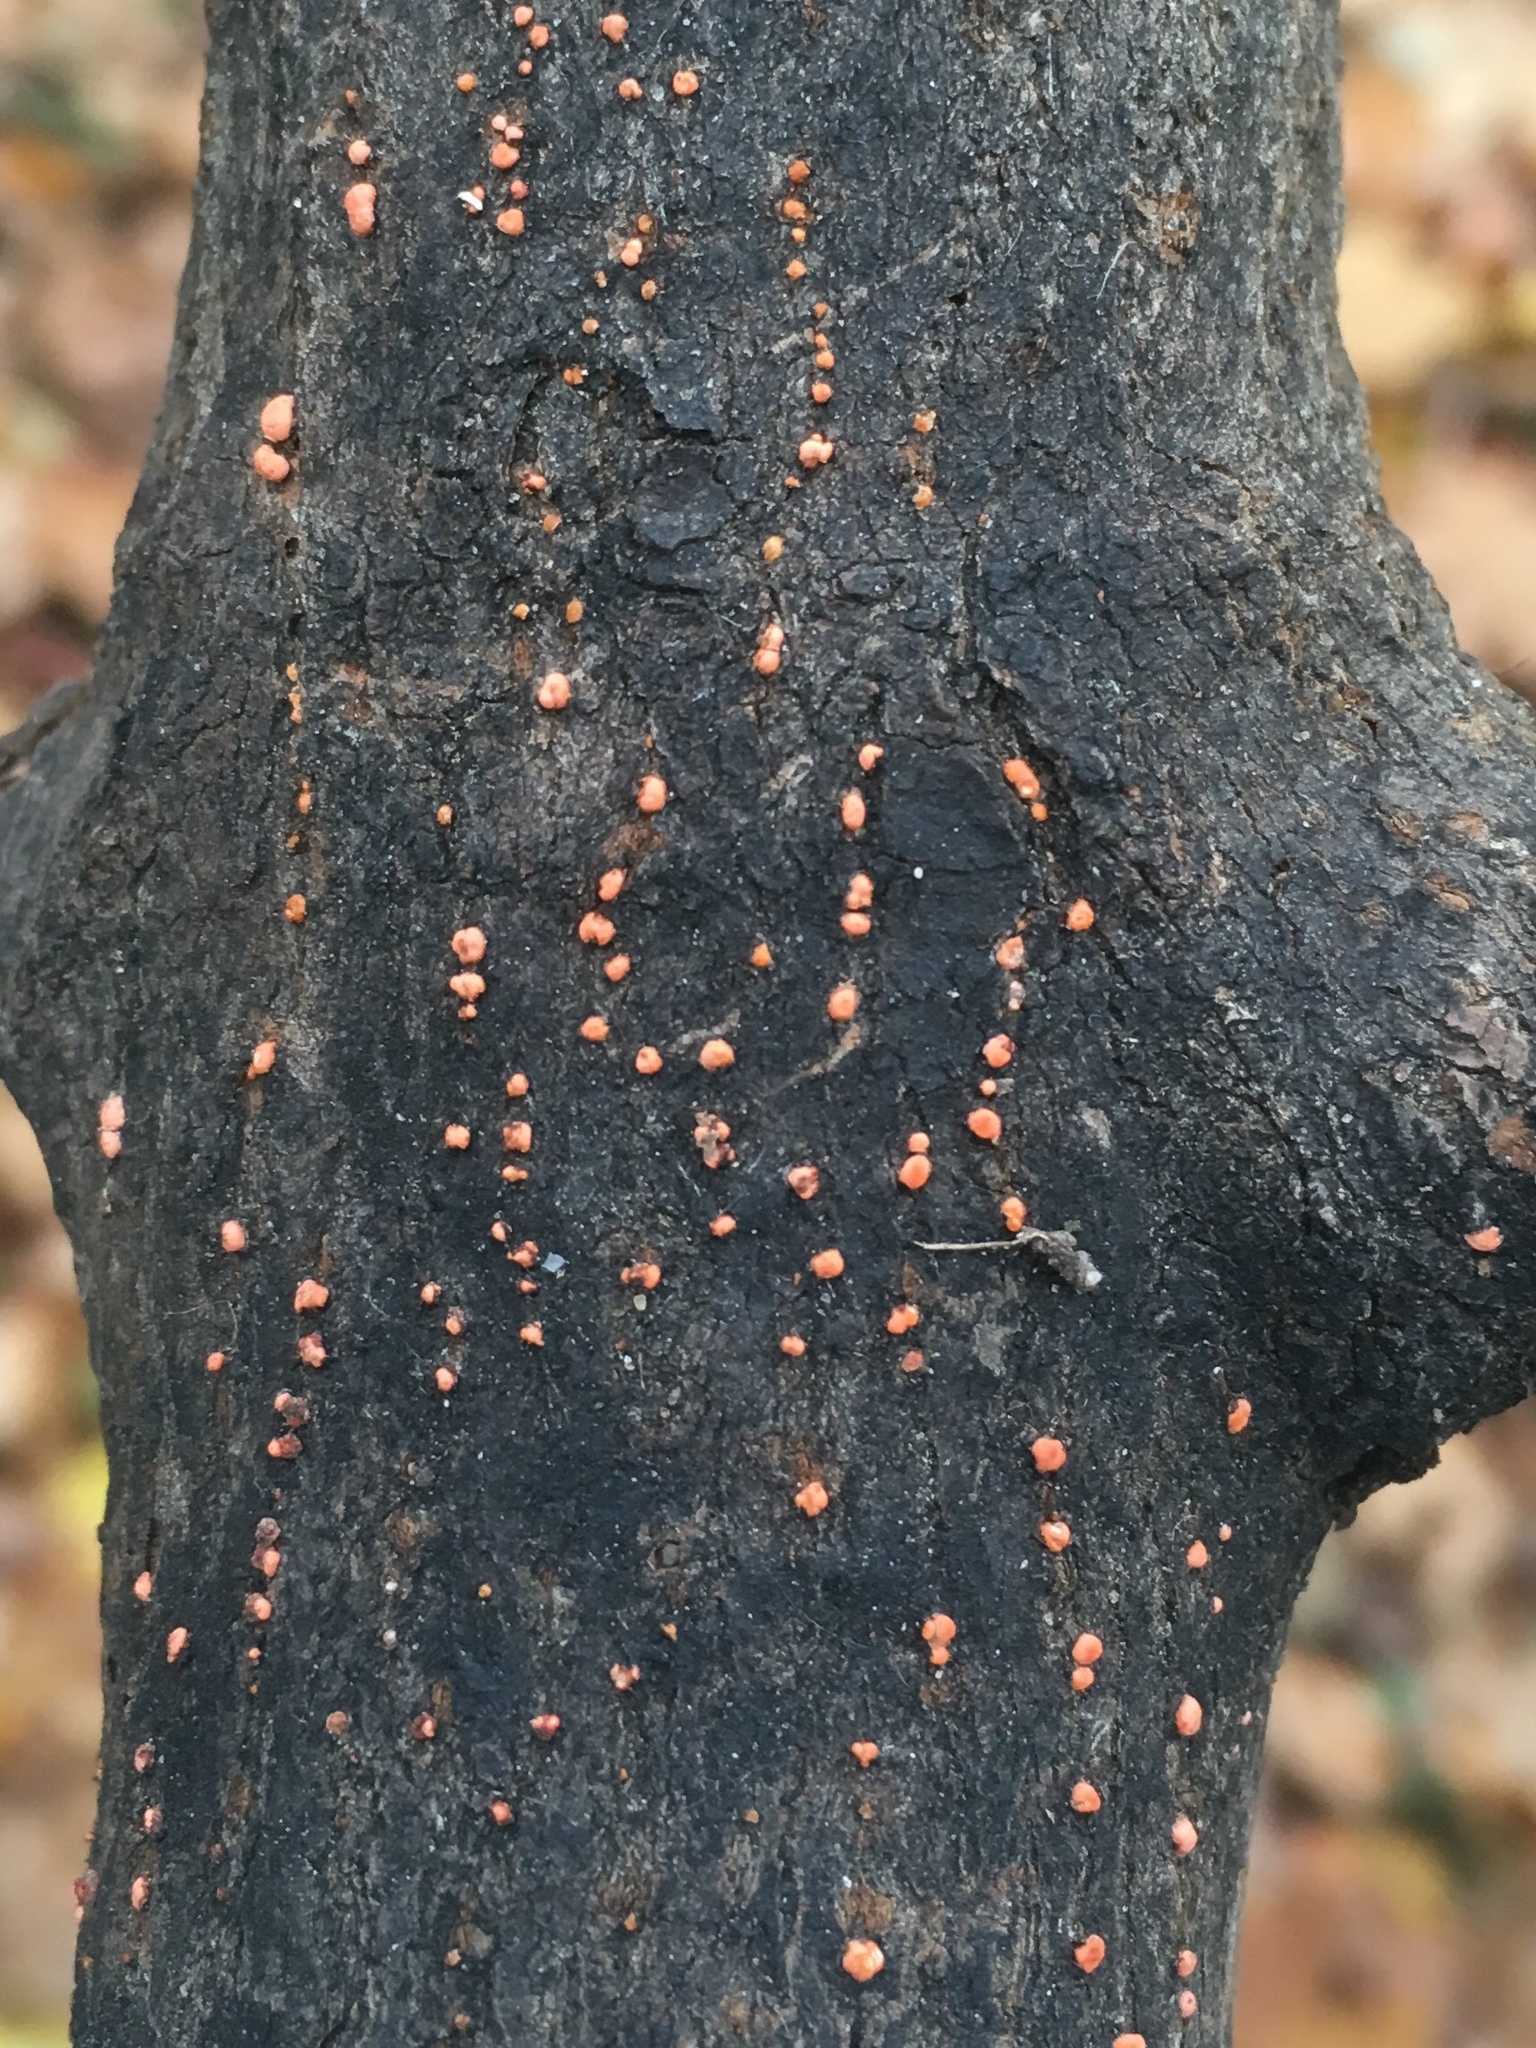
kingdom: Fungi
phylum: Ascomycota
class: Sordariomycetes
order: Hypocreales
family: Nectriaceae
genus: Nectria
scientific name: Nectria cinnabarina
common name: Coral spot
